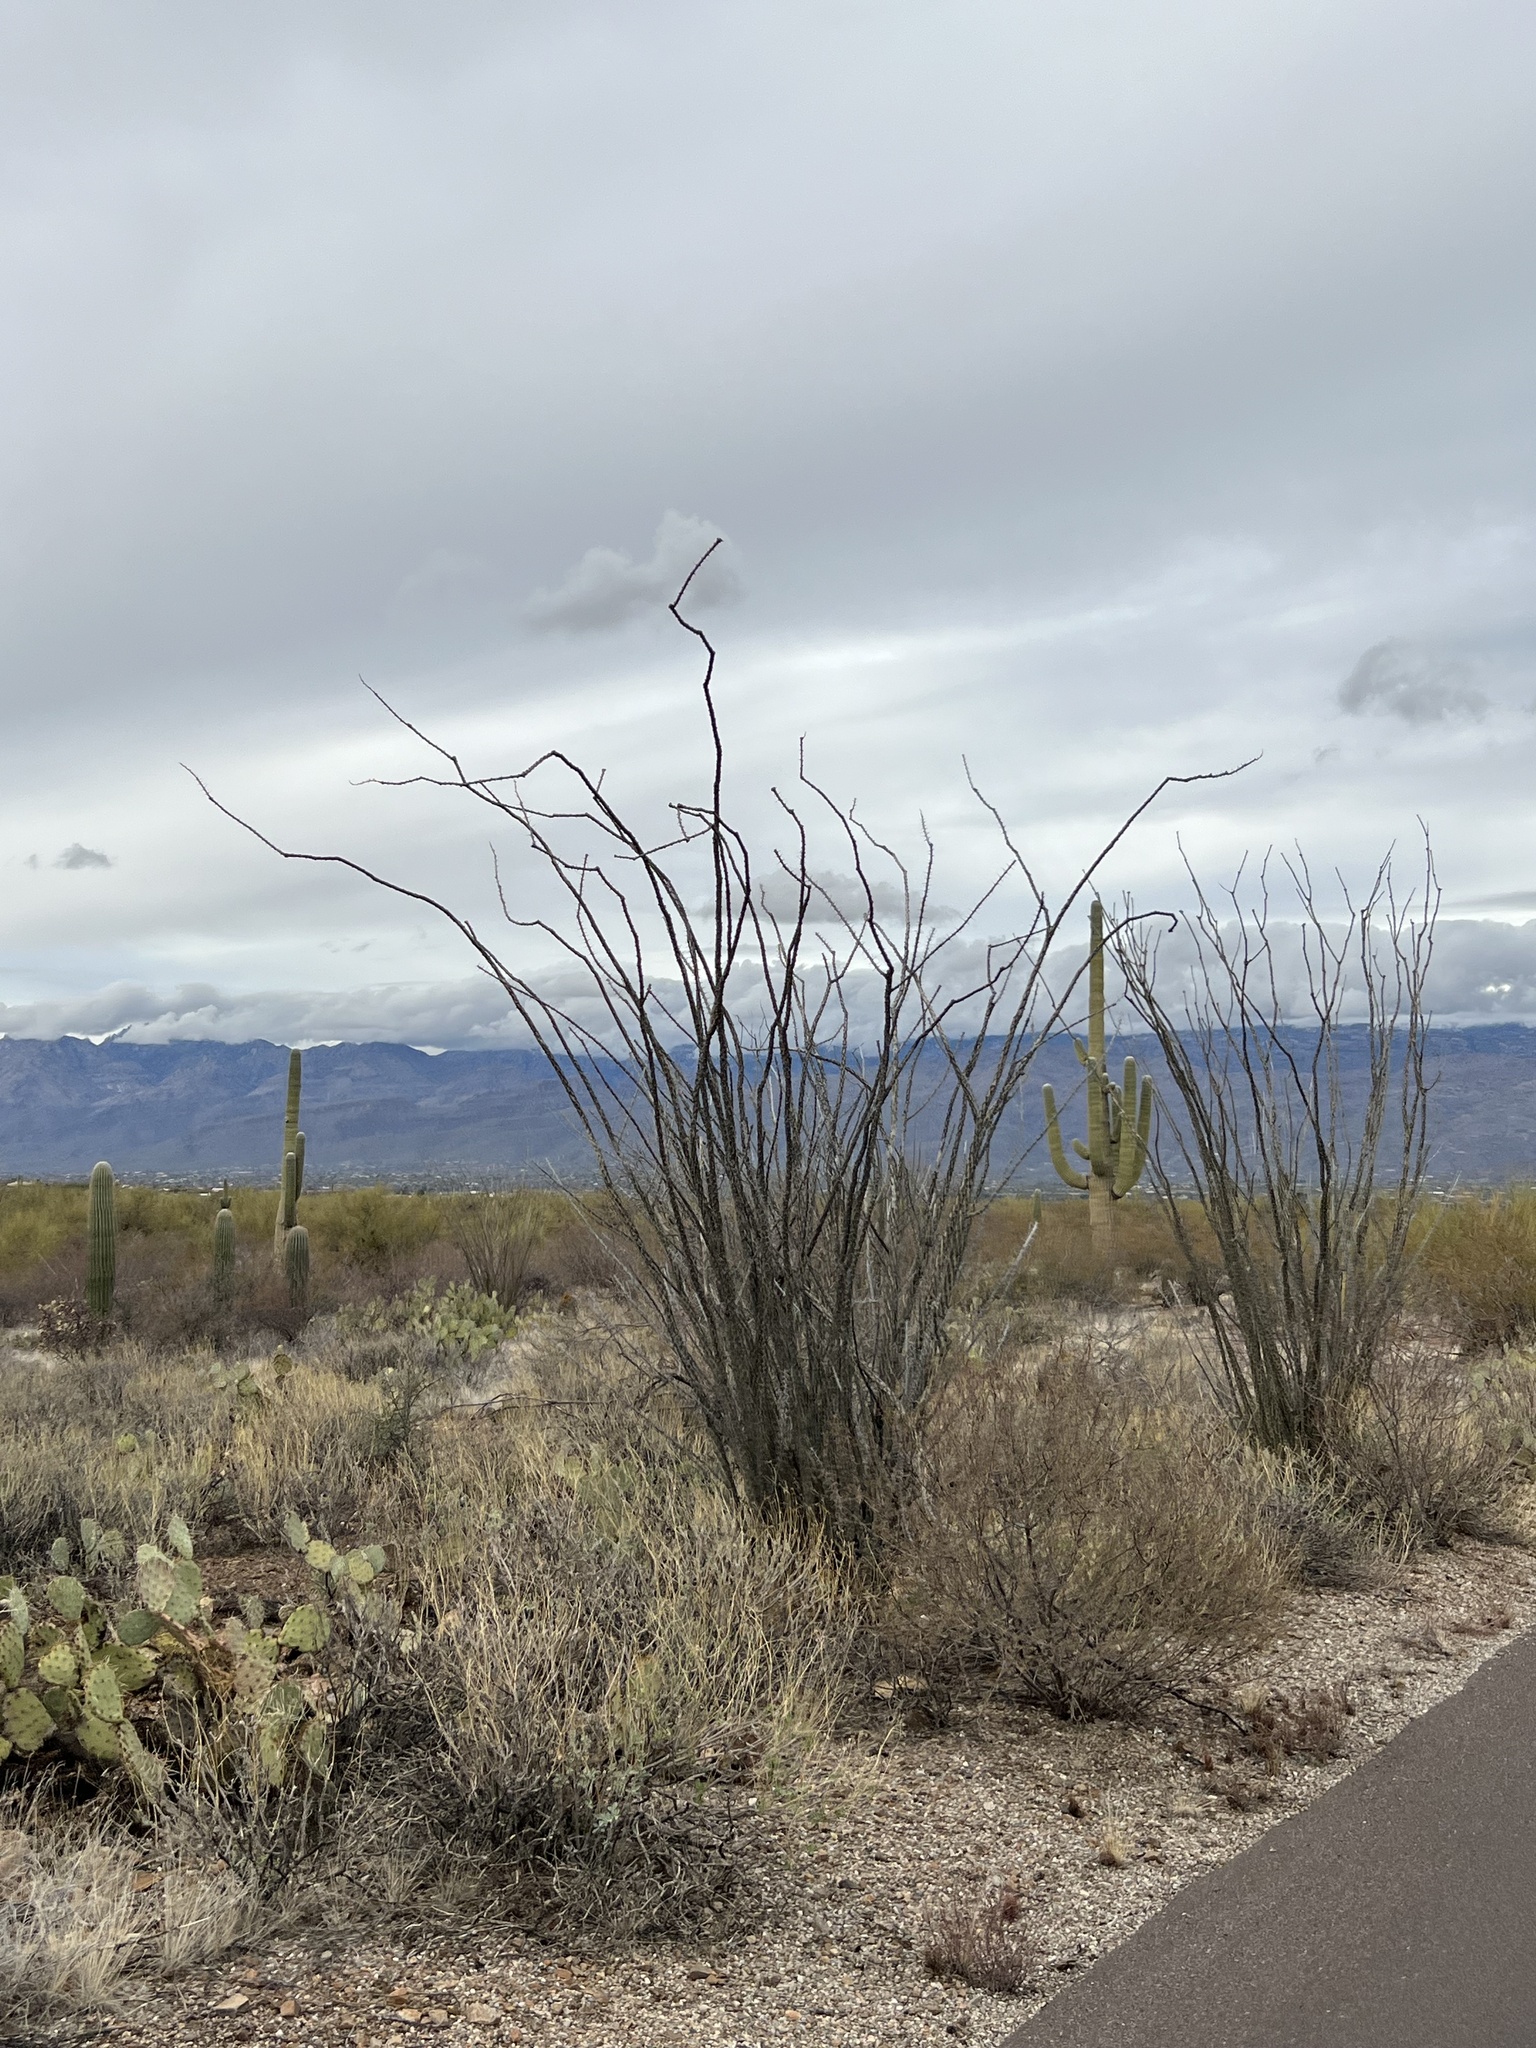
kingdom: Plantae
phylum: Tracheophyta
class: Magnoliopsida
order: Ericales
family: Fouquieriaceae
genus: Fouquieria
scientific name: Fouquieria splendens
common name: Vine-cactus
